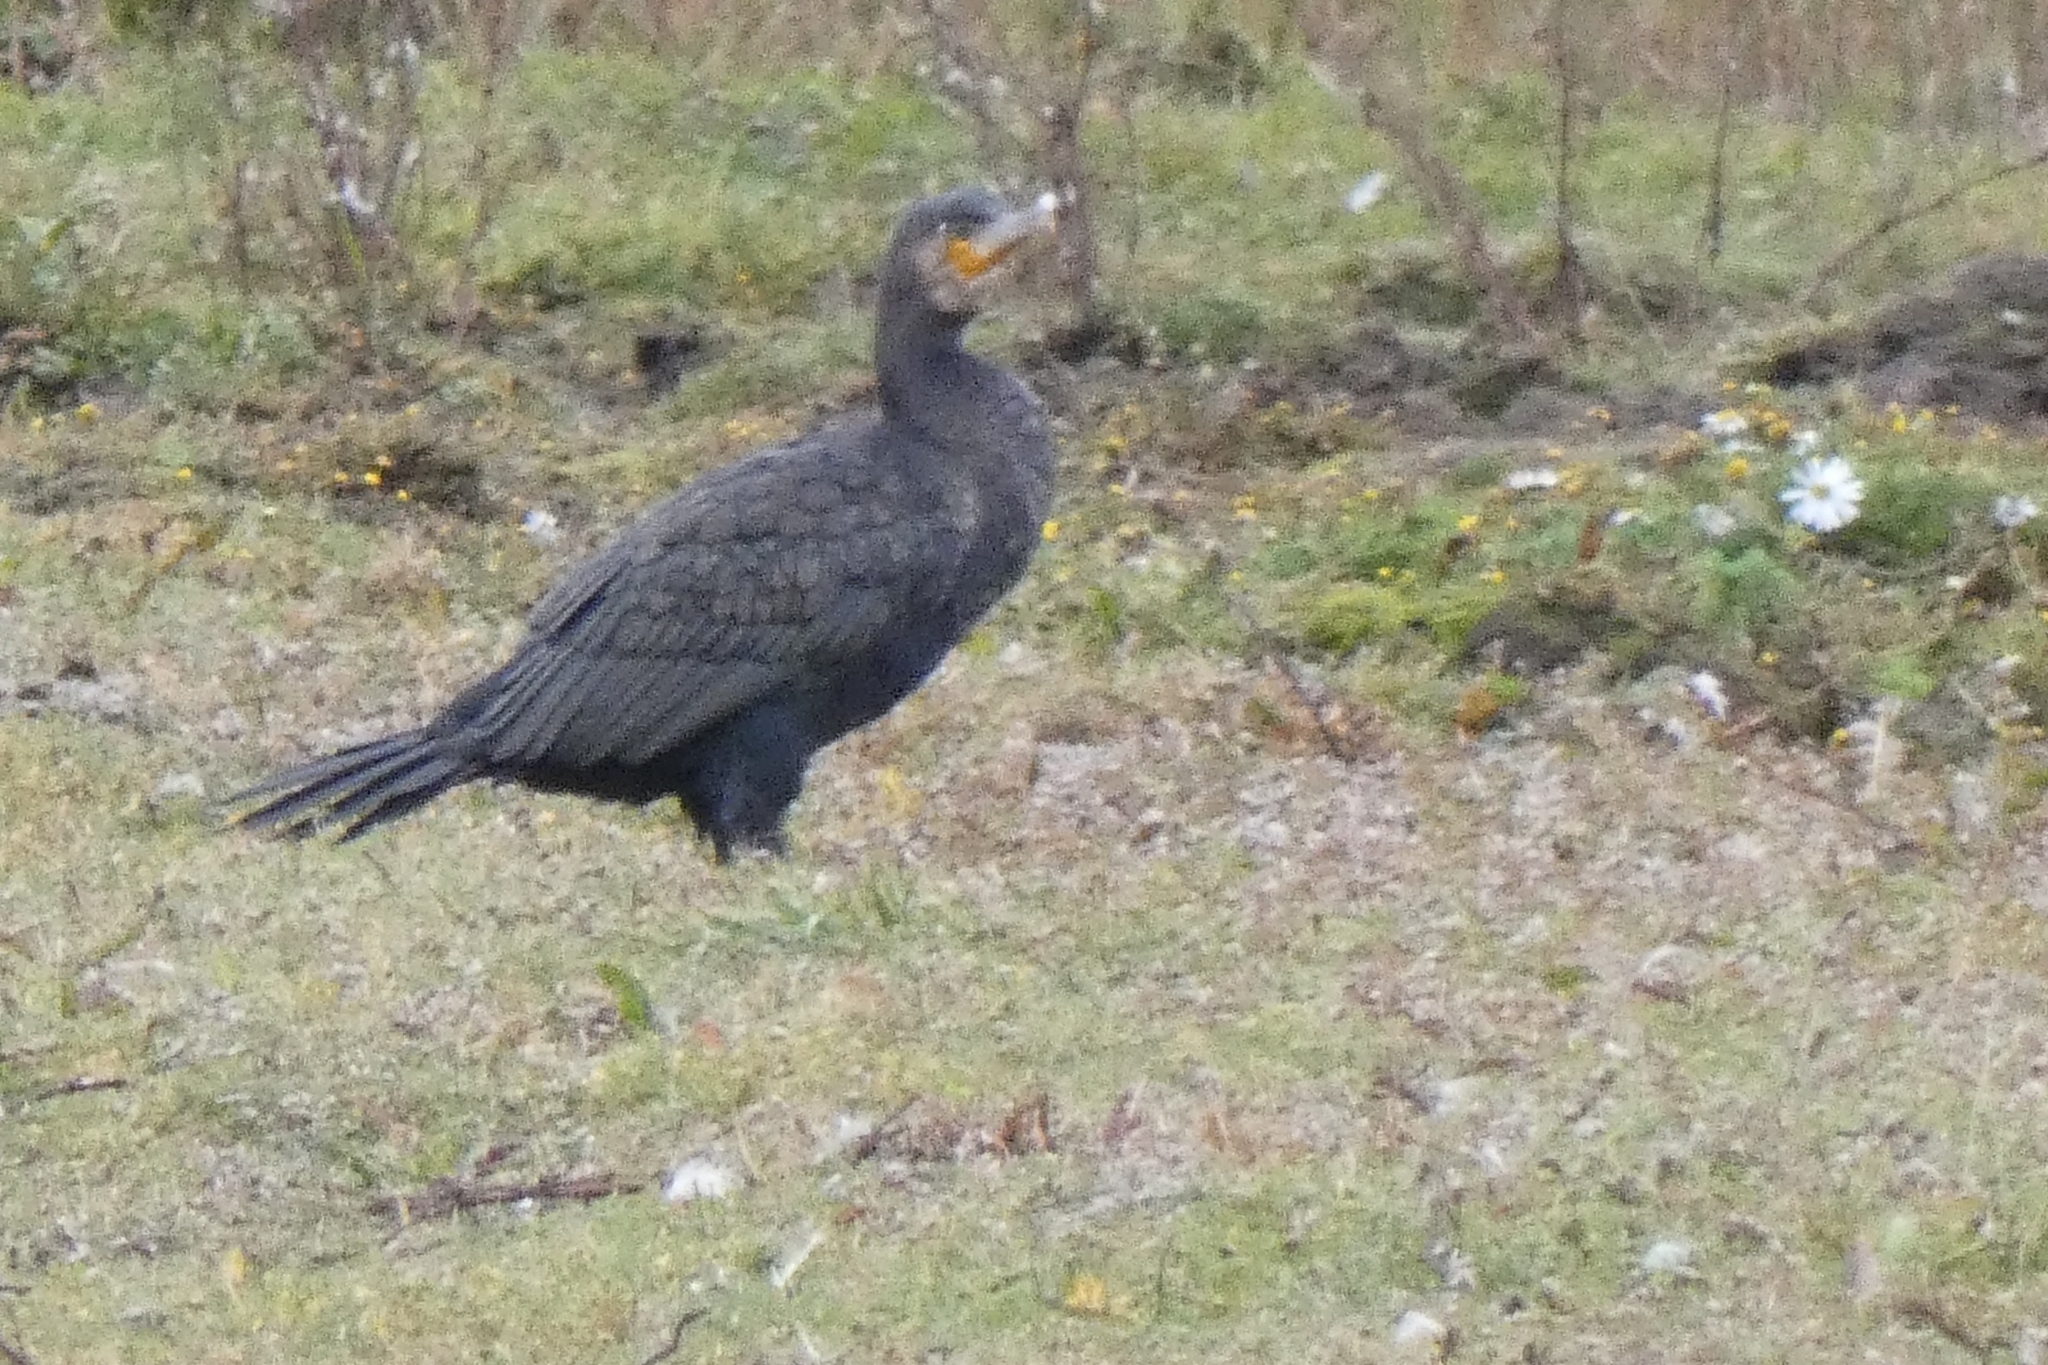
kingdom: Animalia
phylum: Chordata
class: Aves
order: Suliformes
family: Phalacrocoracidae
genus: Phalacrocorax
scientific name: Phalacrocorax carbo
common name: Great cormorant
